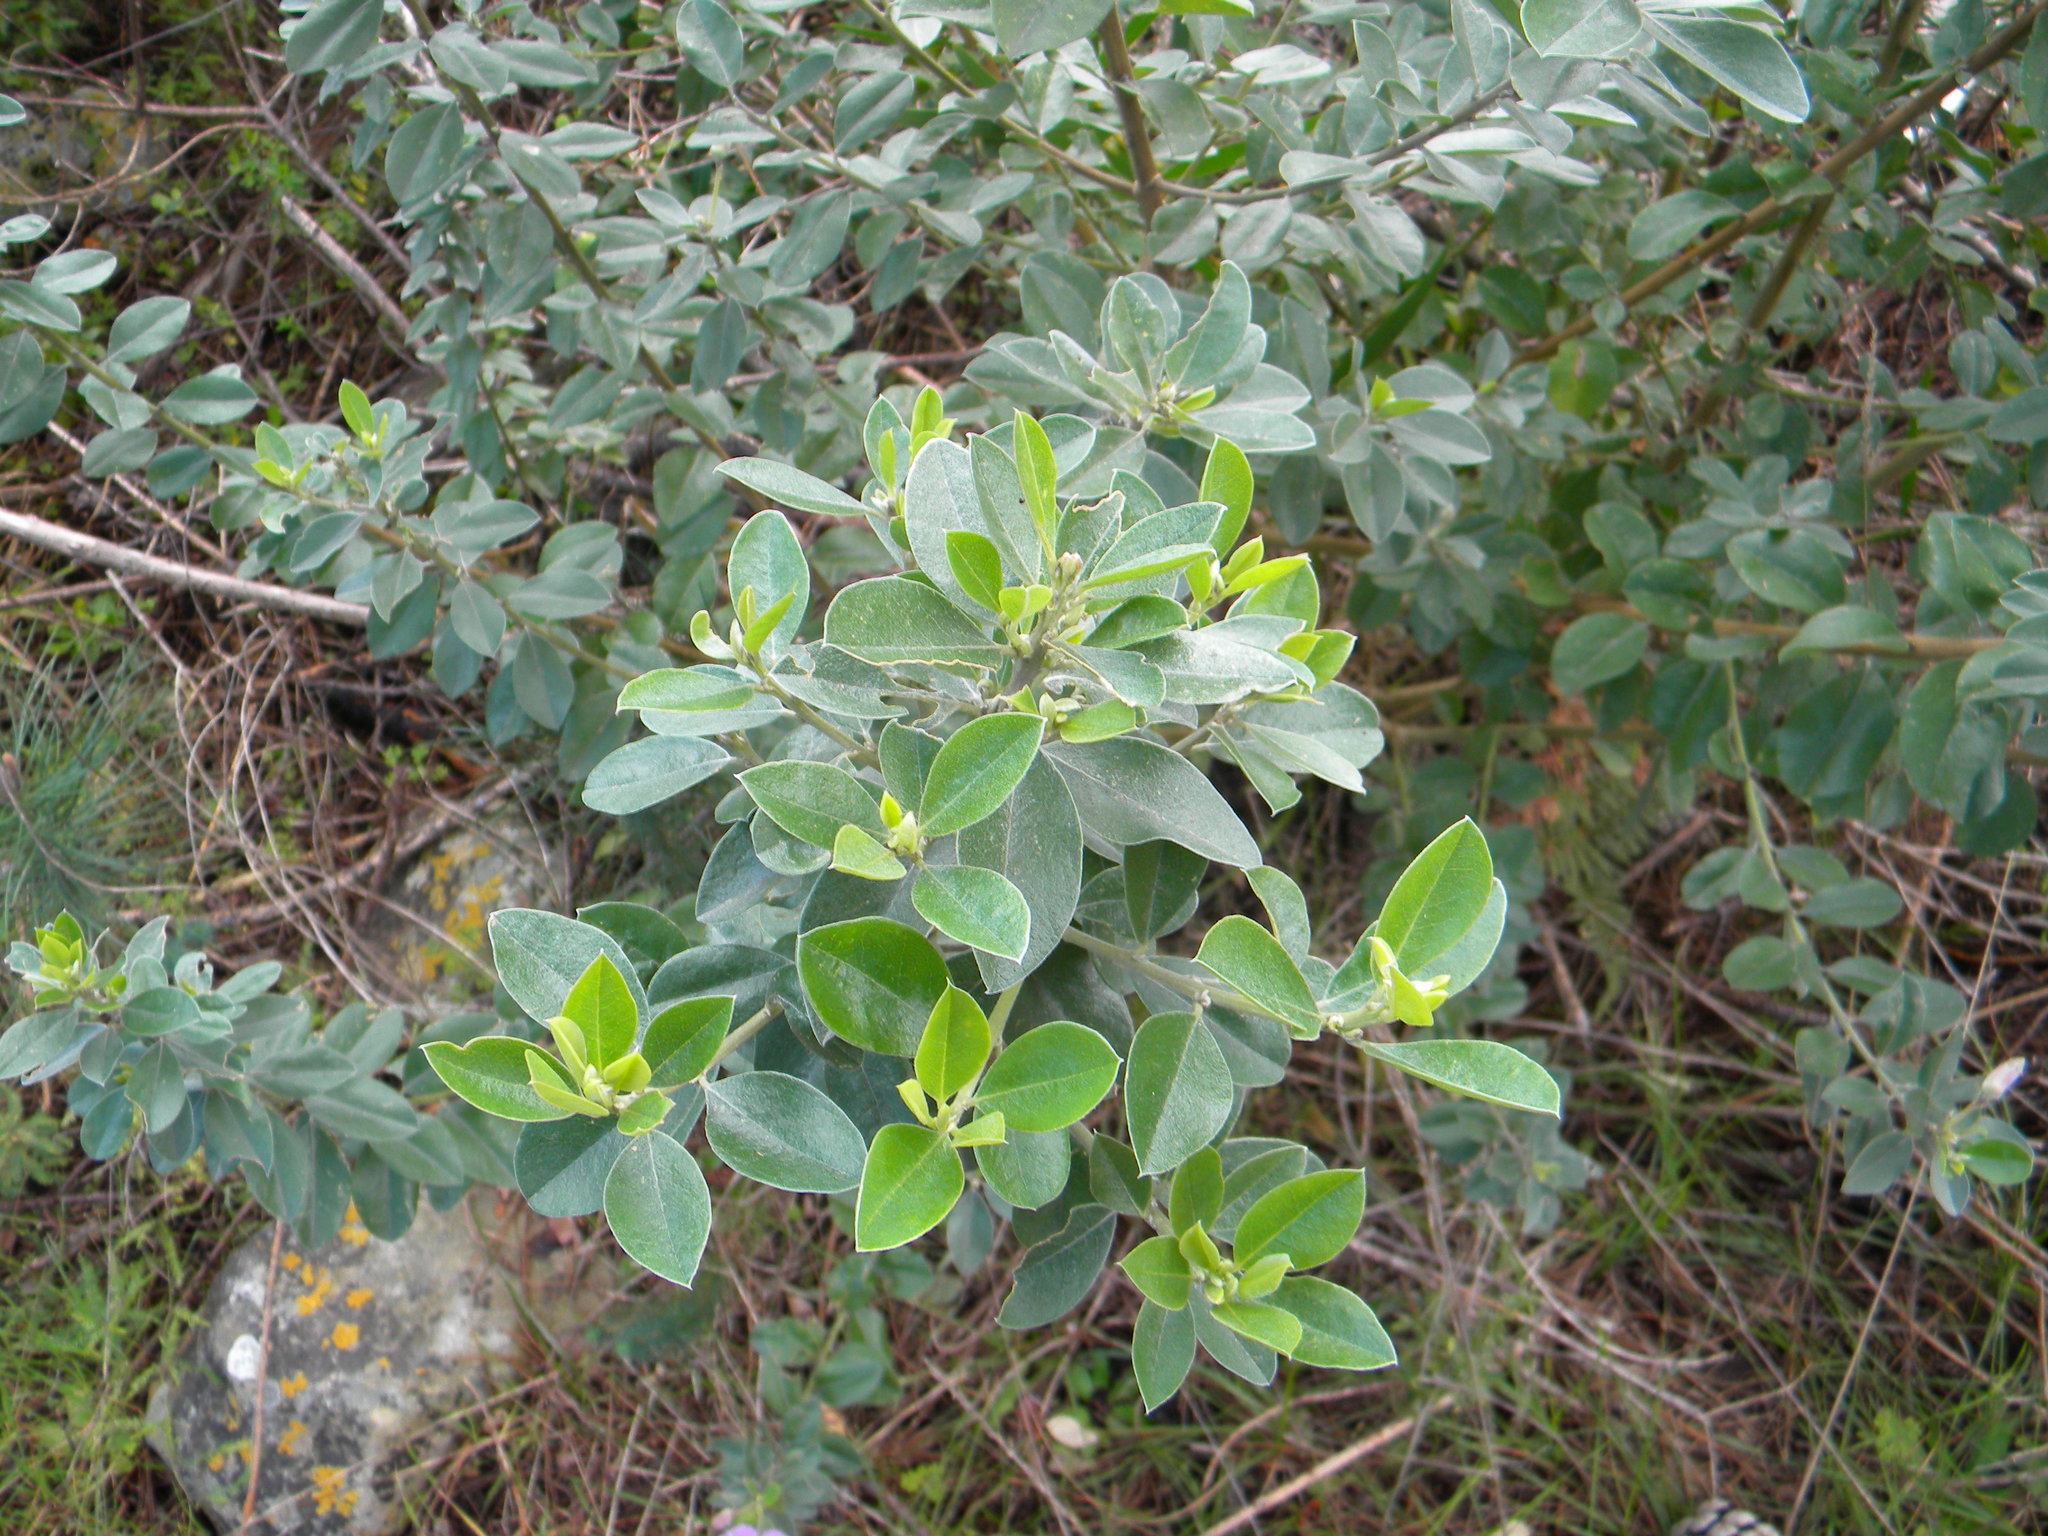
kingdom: Plantae
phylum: Tracheophyta
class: Magnoliopsida
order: Fabales
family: Fabaceae
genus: Podalyria
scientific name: Podalyria calyptrata
